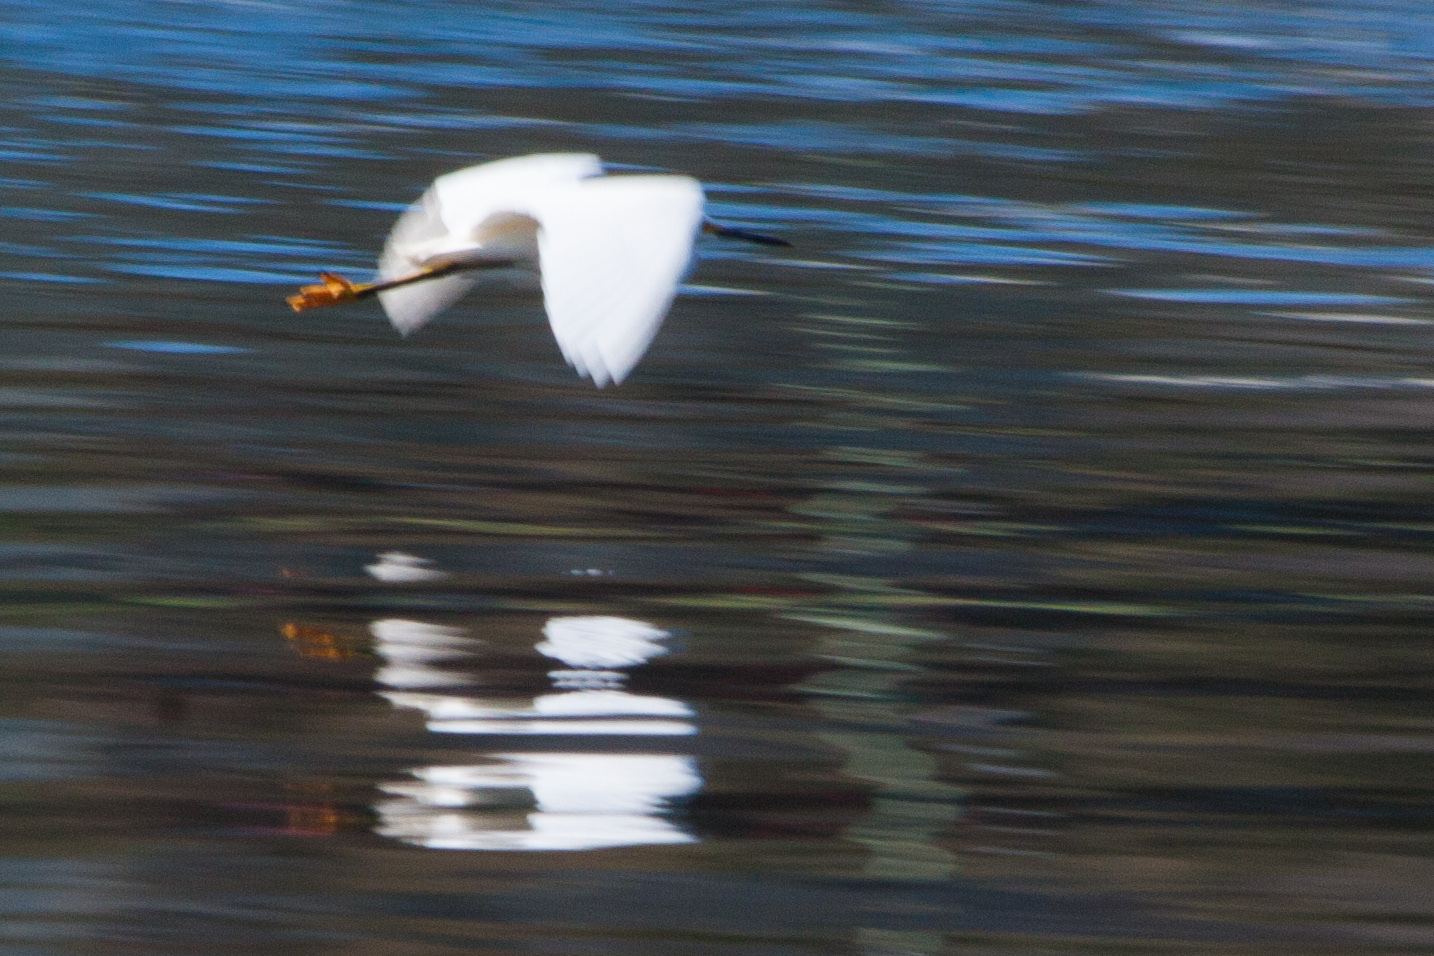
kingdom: Animalia
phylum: Chordata
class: Aves
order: Pelecaniformes
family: Ardeidae
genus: Egretta
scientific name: Egretta thula
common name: Snowy egret
